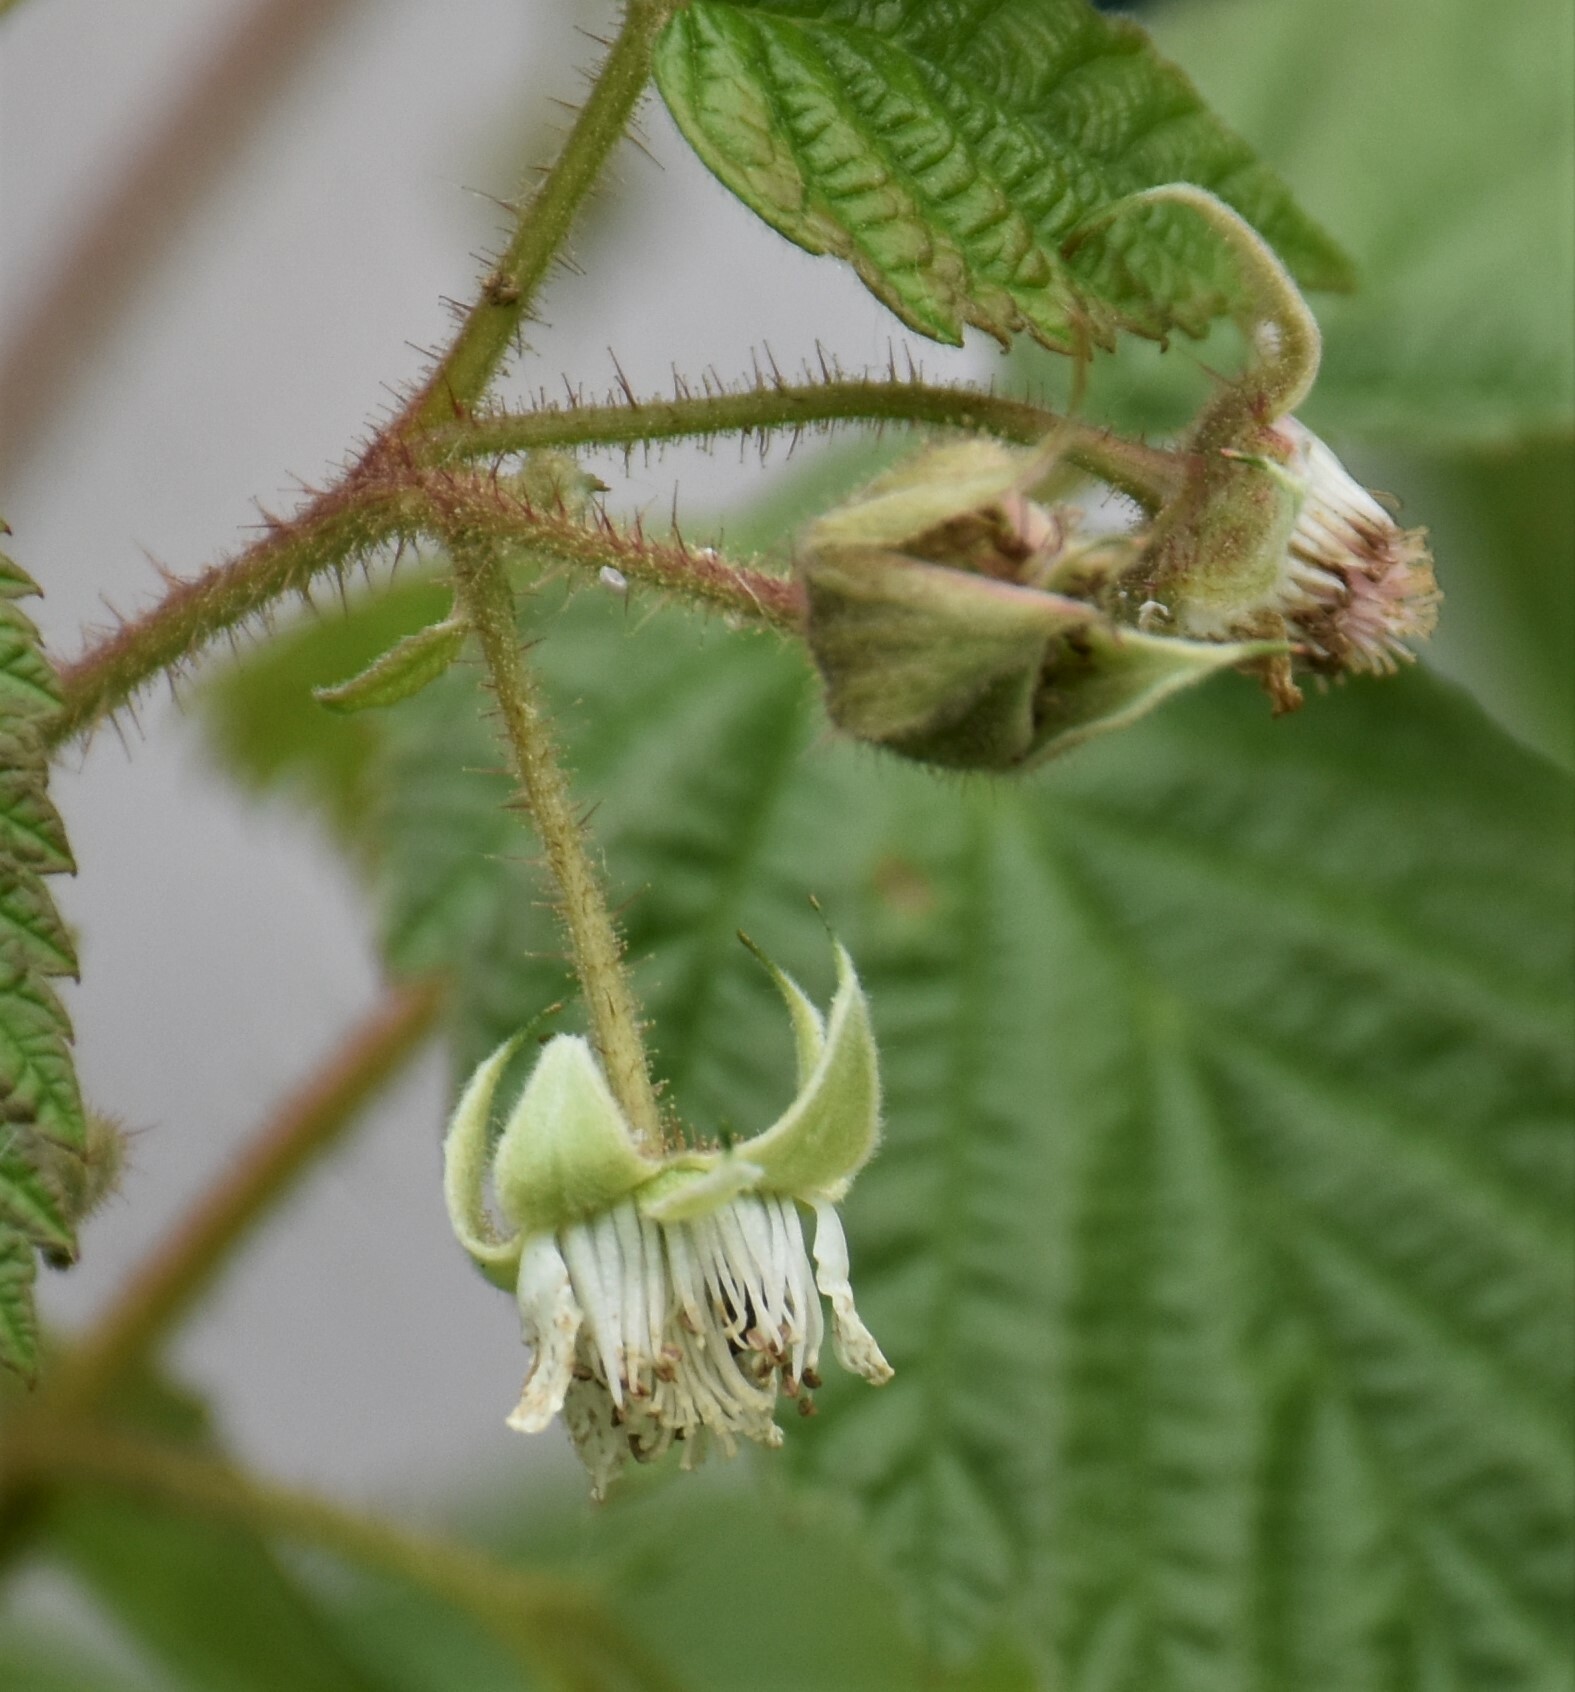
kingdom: Plantae
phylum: Tracheophyta
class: Magnoliopsida
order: Rosales
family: Rosaceae
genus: Rubus
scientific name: Rubus idaeus
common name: Raspberry
